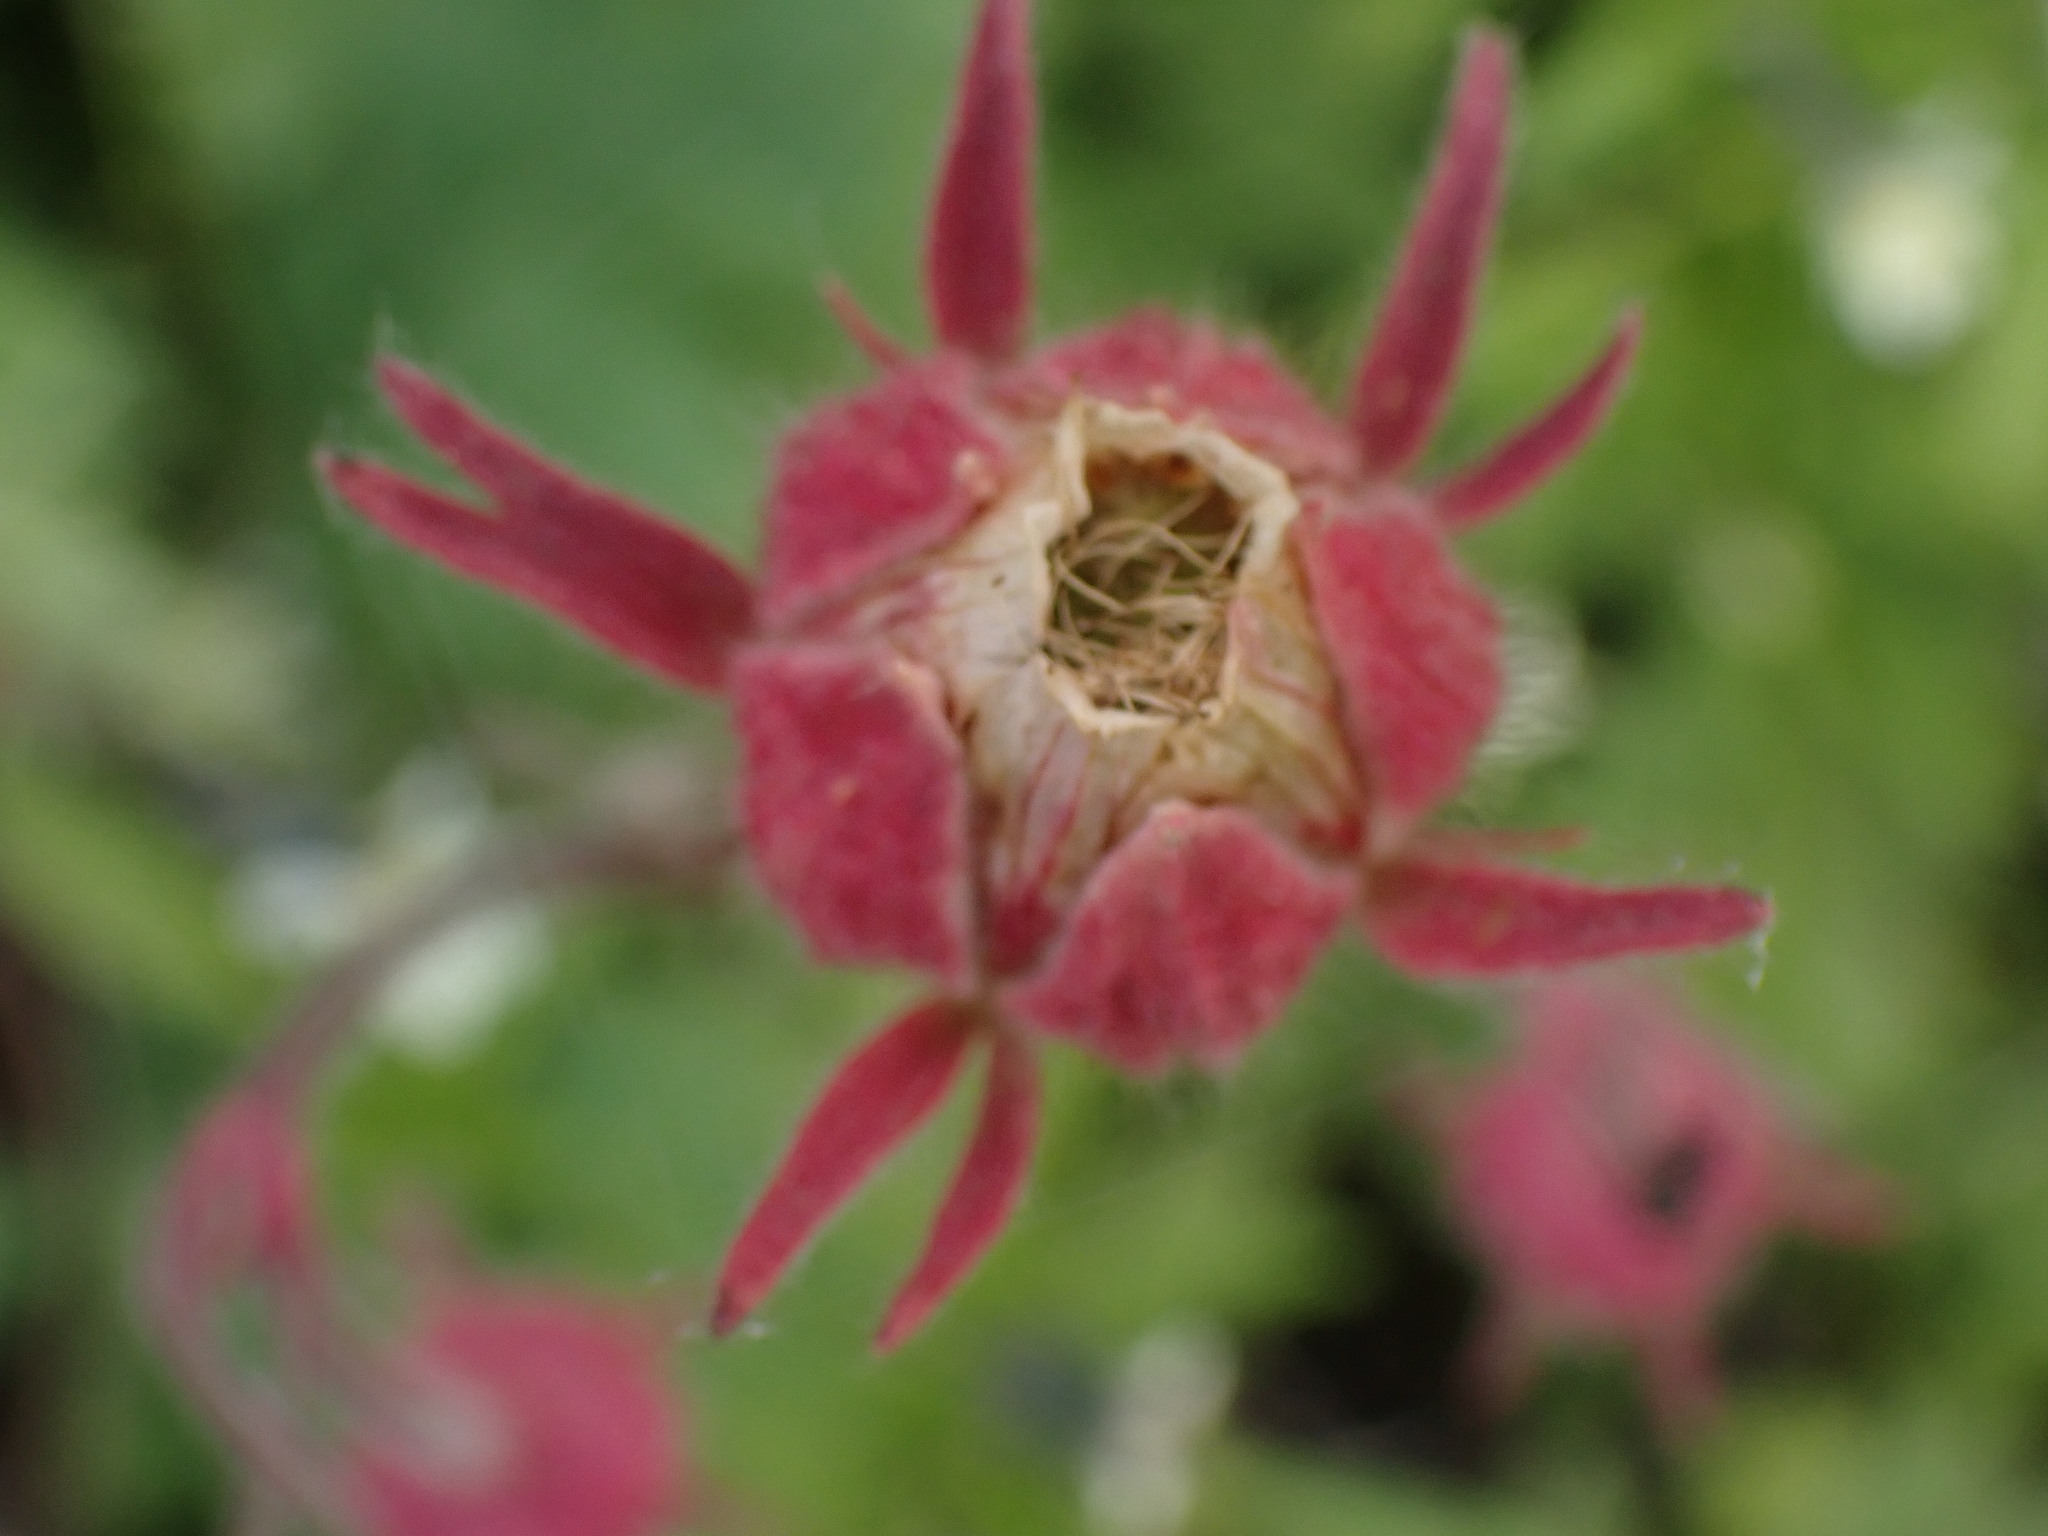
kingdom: Plantae
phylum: Tracheophyta
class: Magnoliopsida
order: Rosales
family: Rosaceae
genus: Geum
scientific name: Geum triflorum
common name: Old man's whiskers
